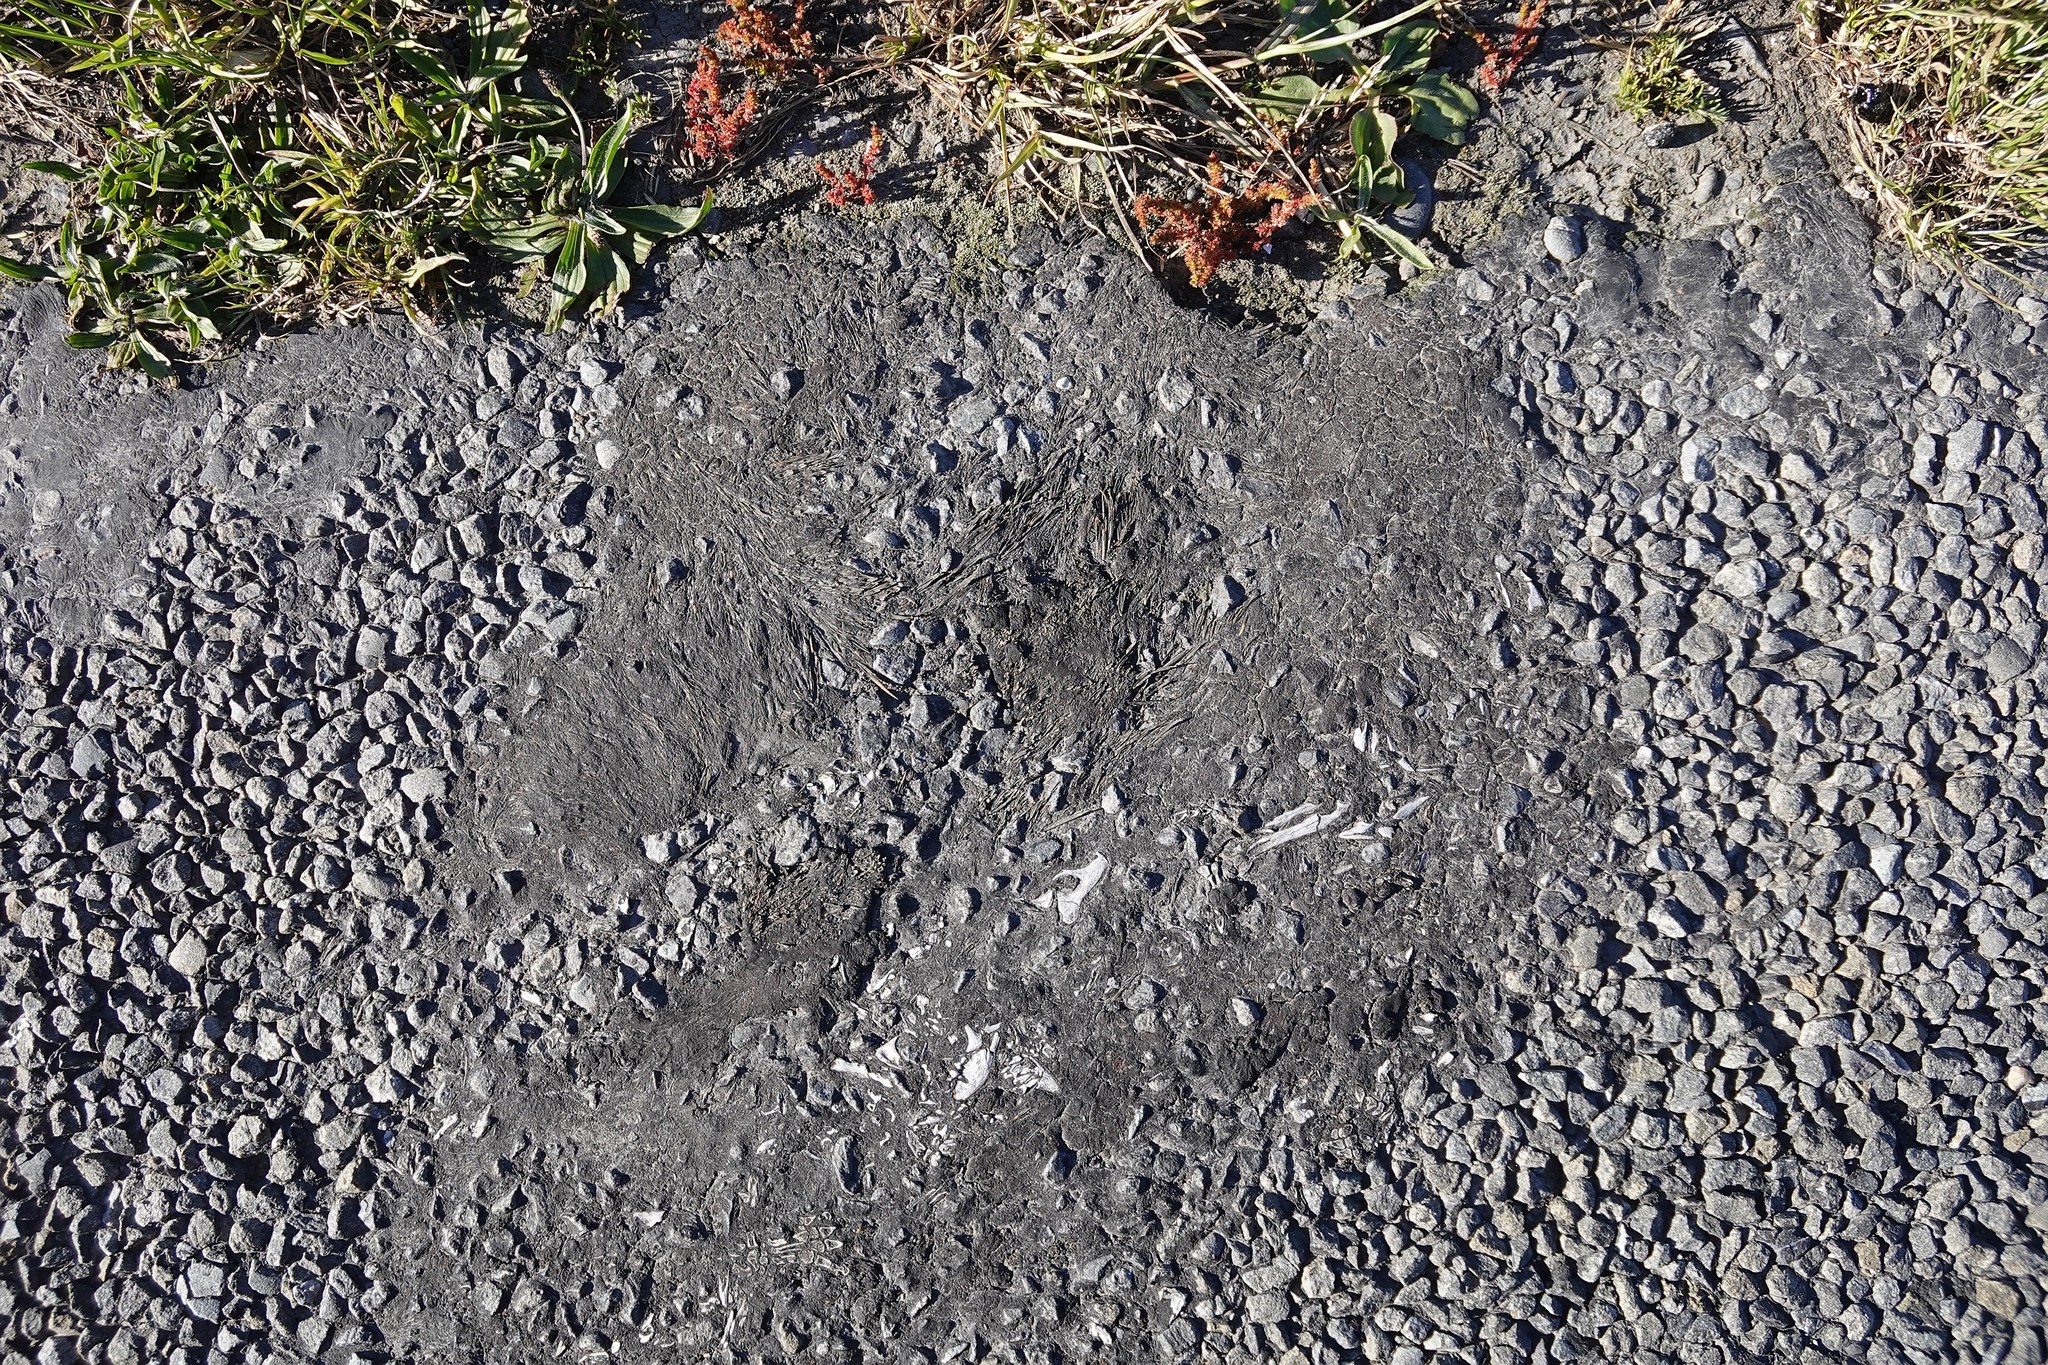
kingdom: Animalia
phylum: Chordata
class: Mammalia
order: Erinaceomorpha
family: Erinaceidae
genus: Erinaceus
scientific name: Erinaceus europaeus
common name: West european hedgehog
